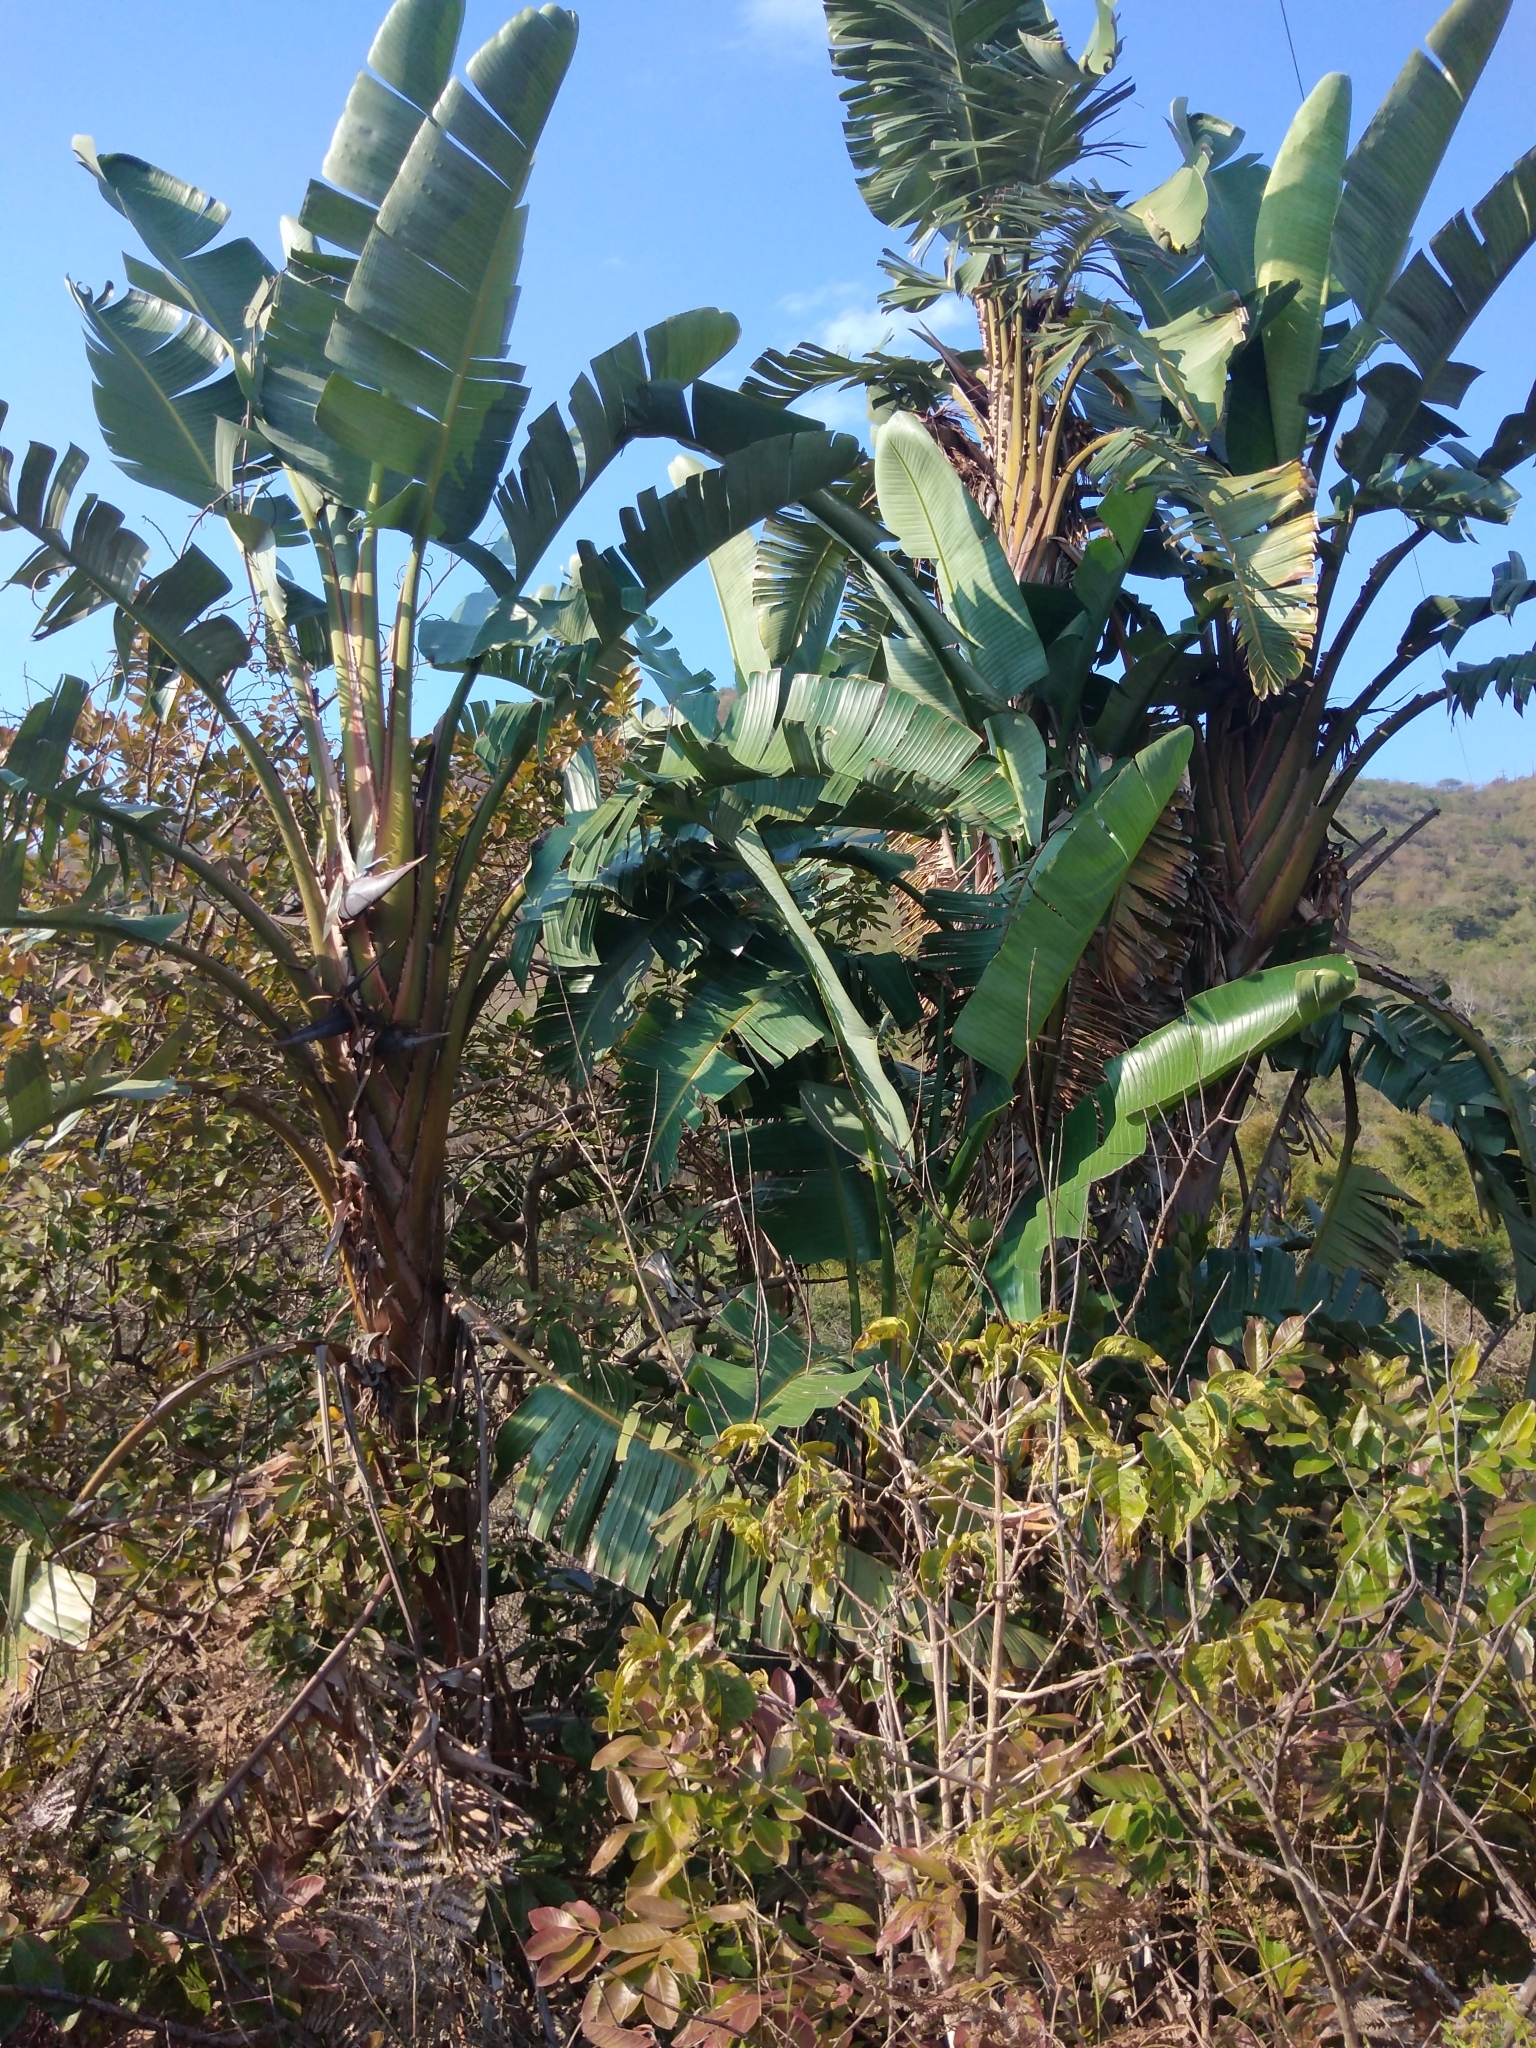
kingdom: Plantae
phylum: Tracheophyta
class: Liliopsida
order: Zingiberales
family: Strelitziaceae
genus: Strelitzia
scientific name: Strelitzia nicolai
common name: Bird-of-paradise tree
